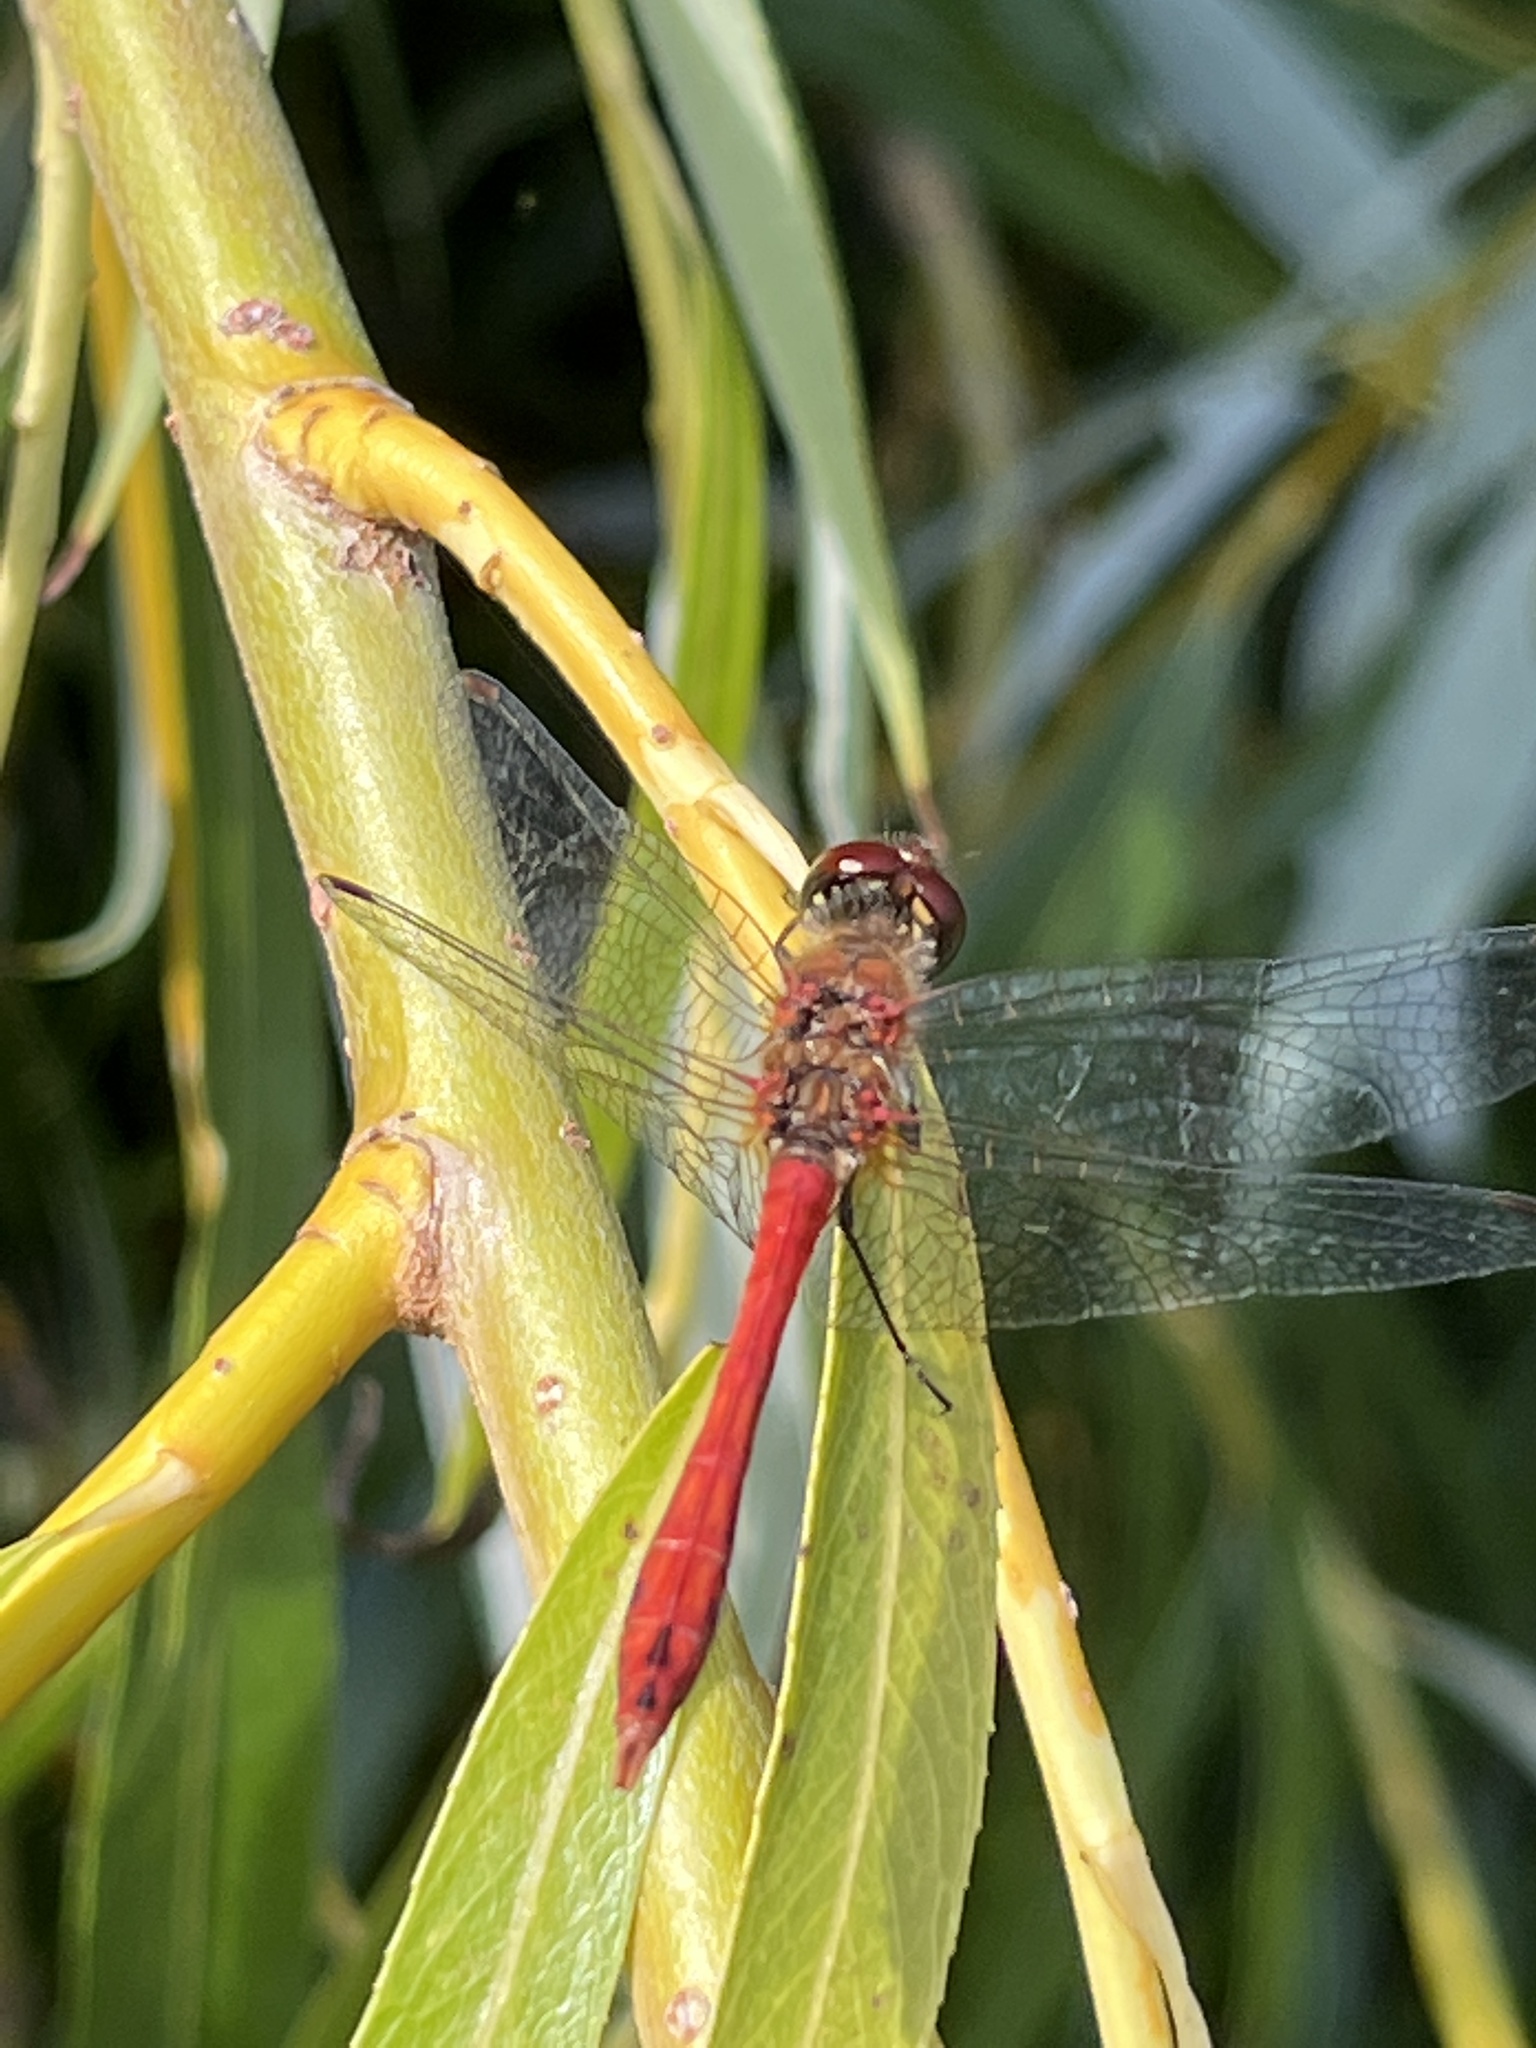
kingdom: Animalia
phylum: Arthropoda
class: Insecta
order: Odonata
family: Libellulidae
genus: Sympetrum
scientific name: Sympetrum sanguineum
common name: Ruddy darter
